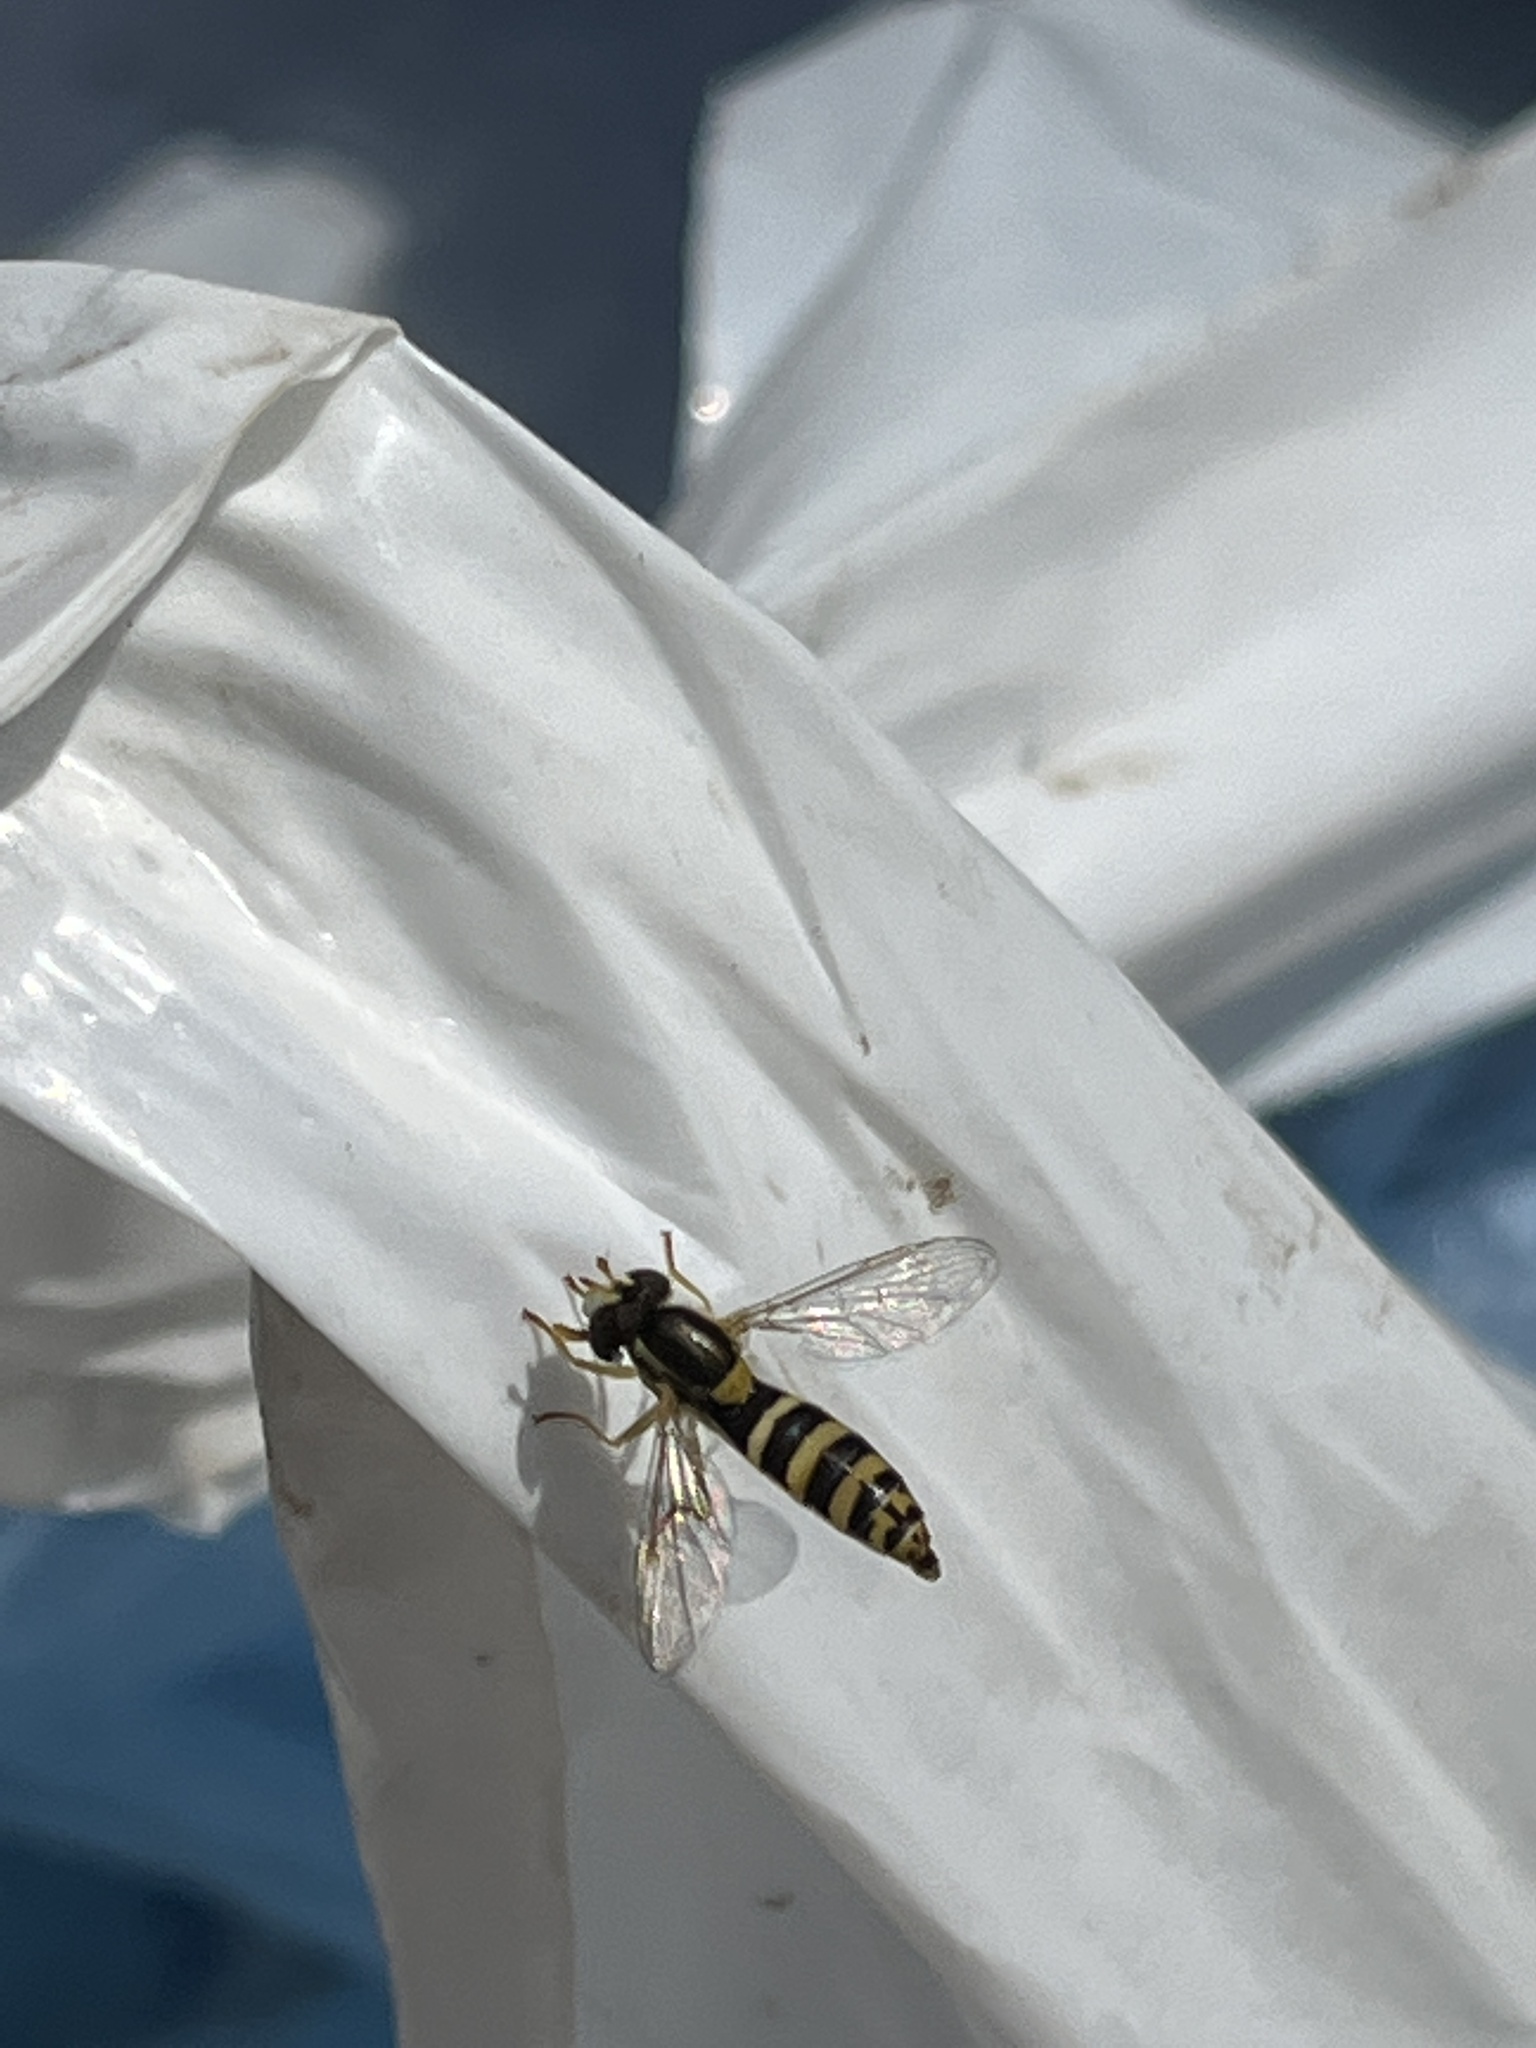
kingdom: Animalia
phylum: Arthropoda
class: Insecta
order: Diptera
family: Syrphidae
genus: Sphaerophoria
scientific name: Sphaerophoria
